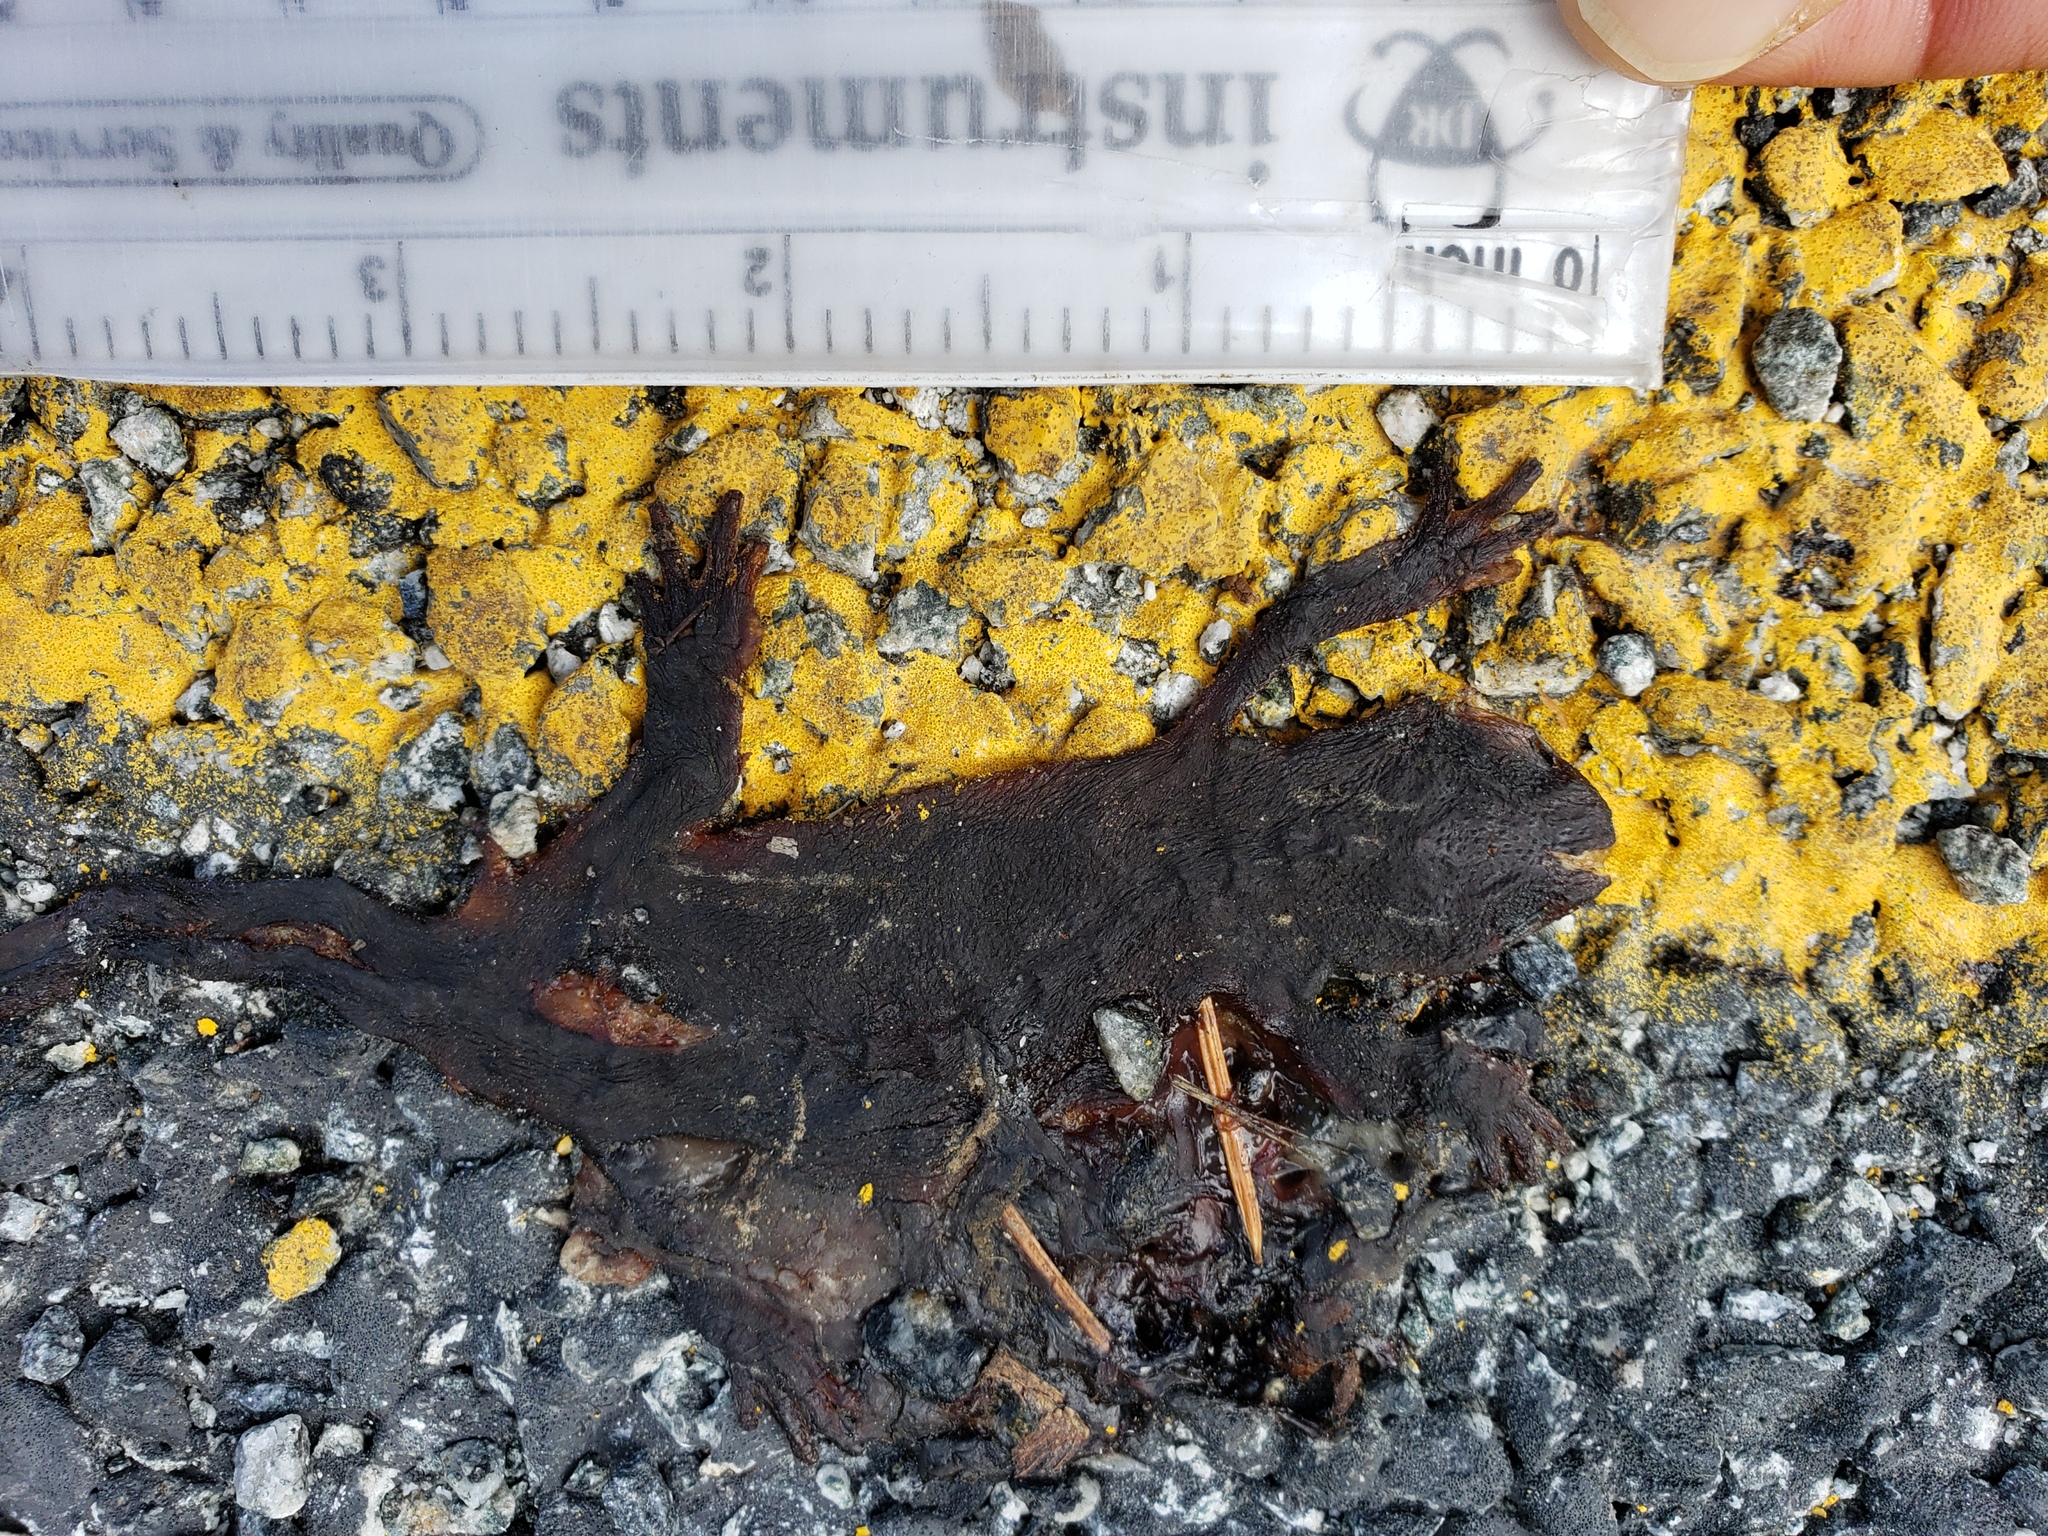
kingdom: Animalia
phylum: Chordata
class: Amphibia
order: Caudata
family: Salamandridae
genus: Taricha
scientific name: Taricha
